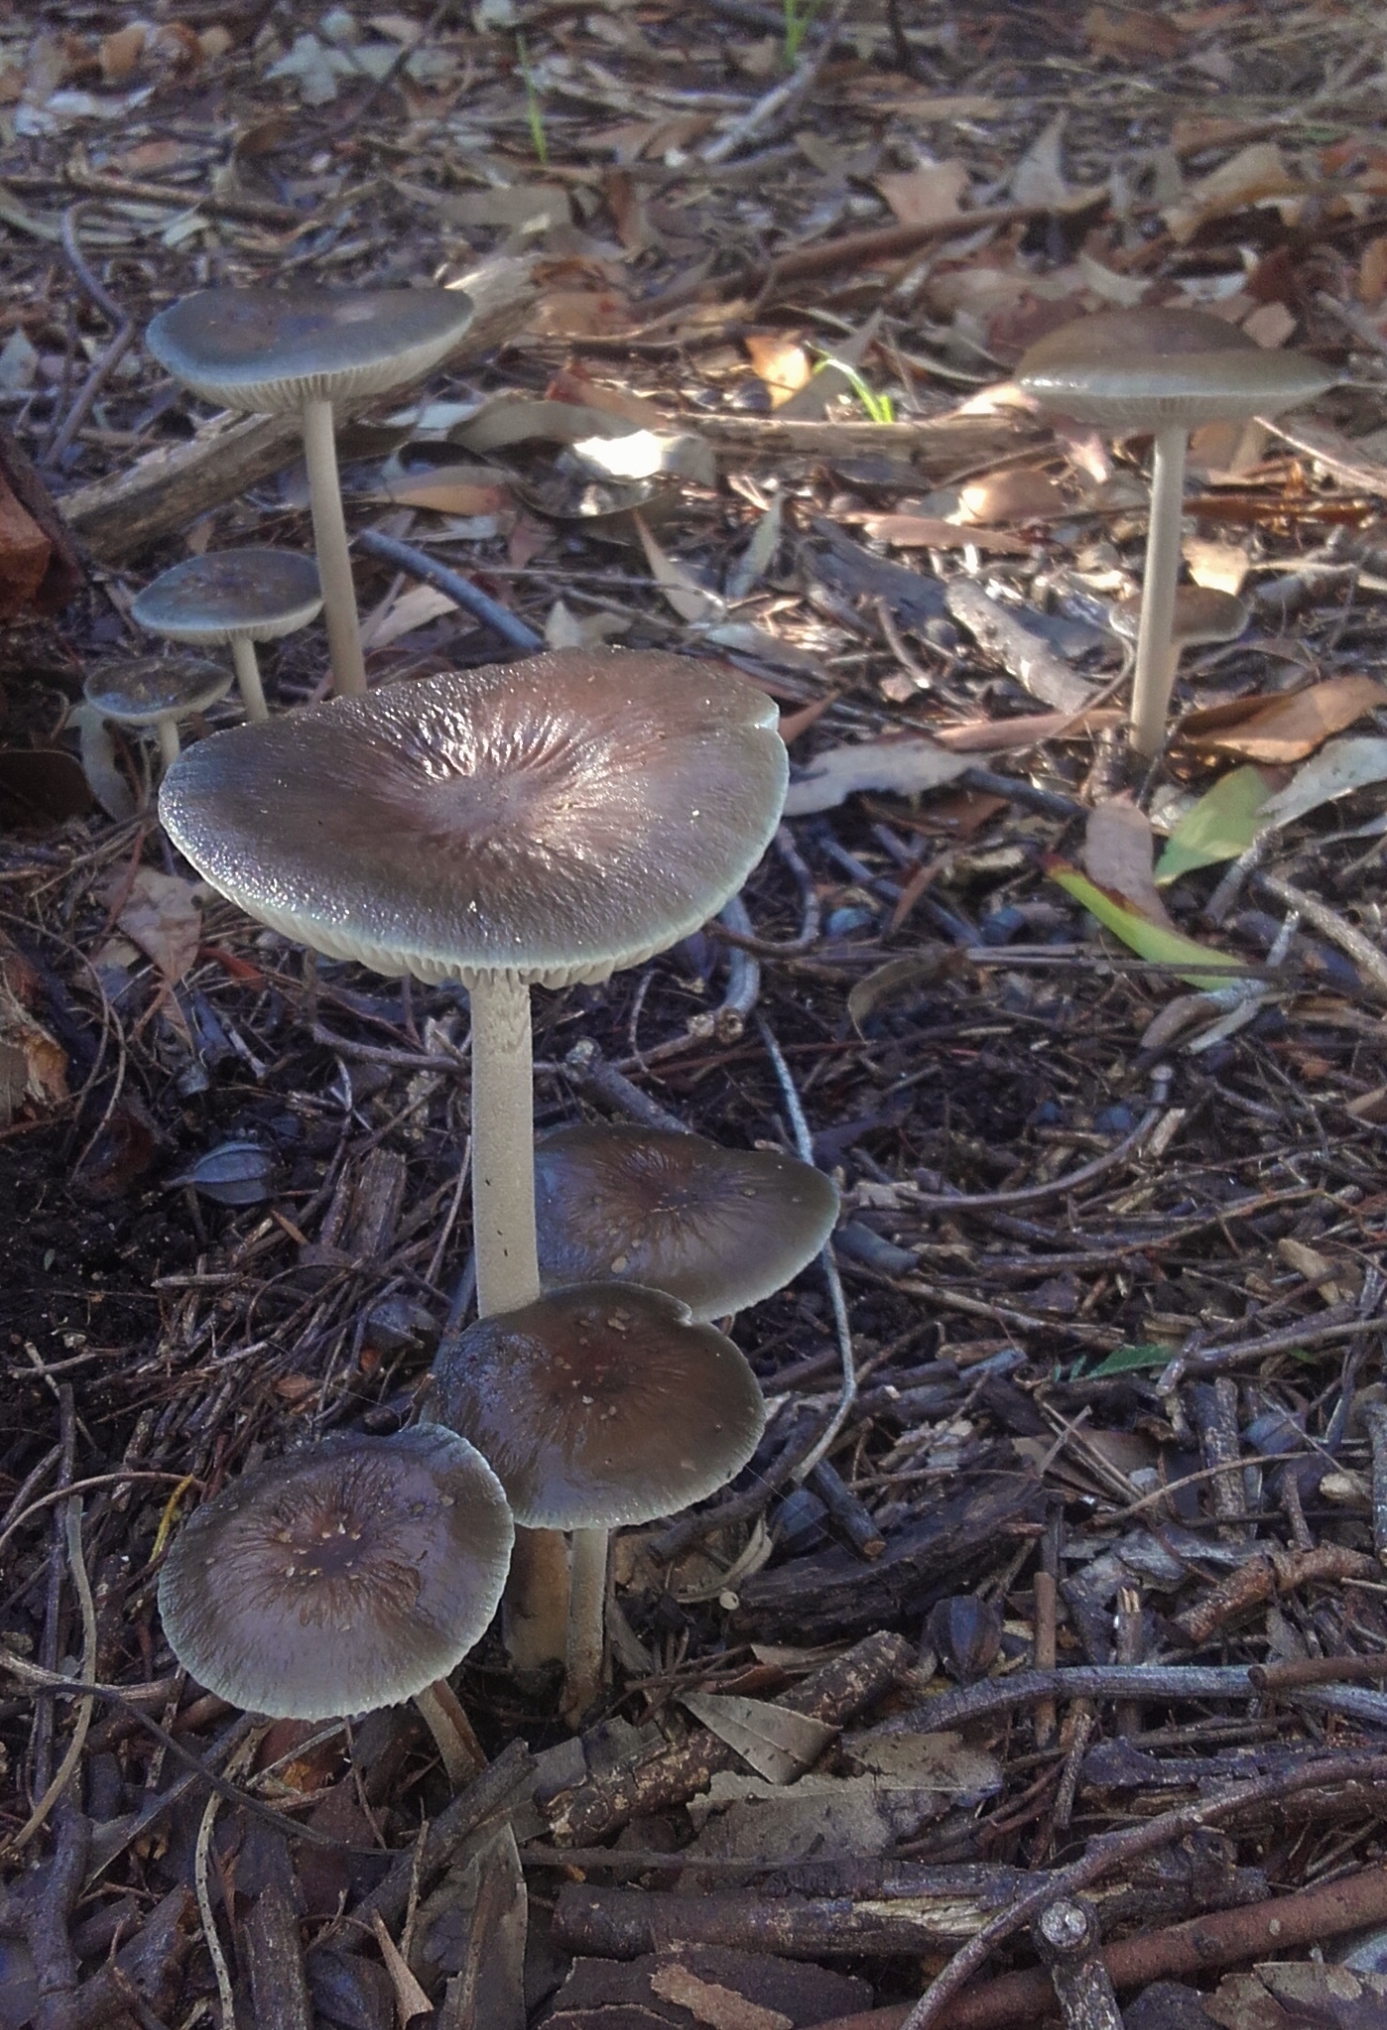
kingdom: Fungi
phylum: Basidiomycota
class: Agaricomycetes
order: Agaricales
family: Physalacriaceae
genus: Hymenopellis
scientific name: Hymenopellis gigaspora
